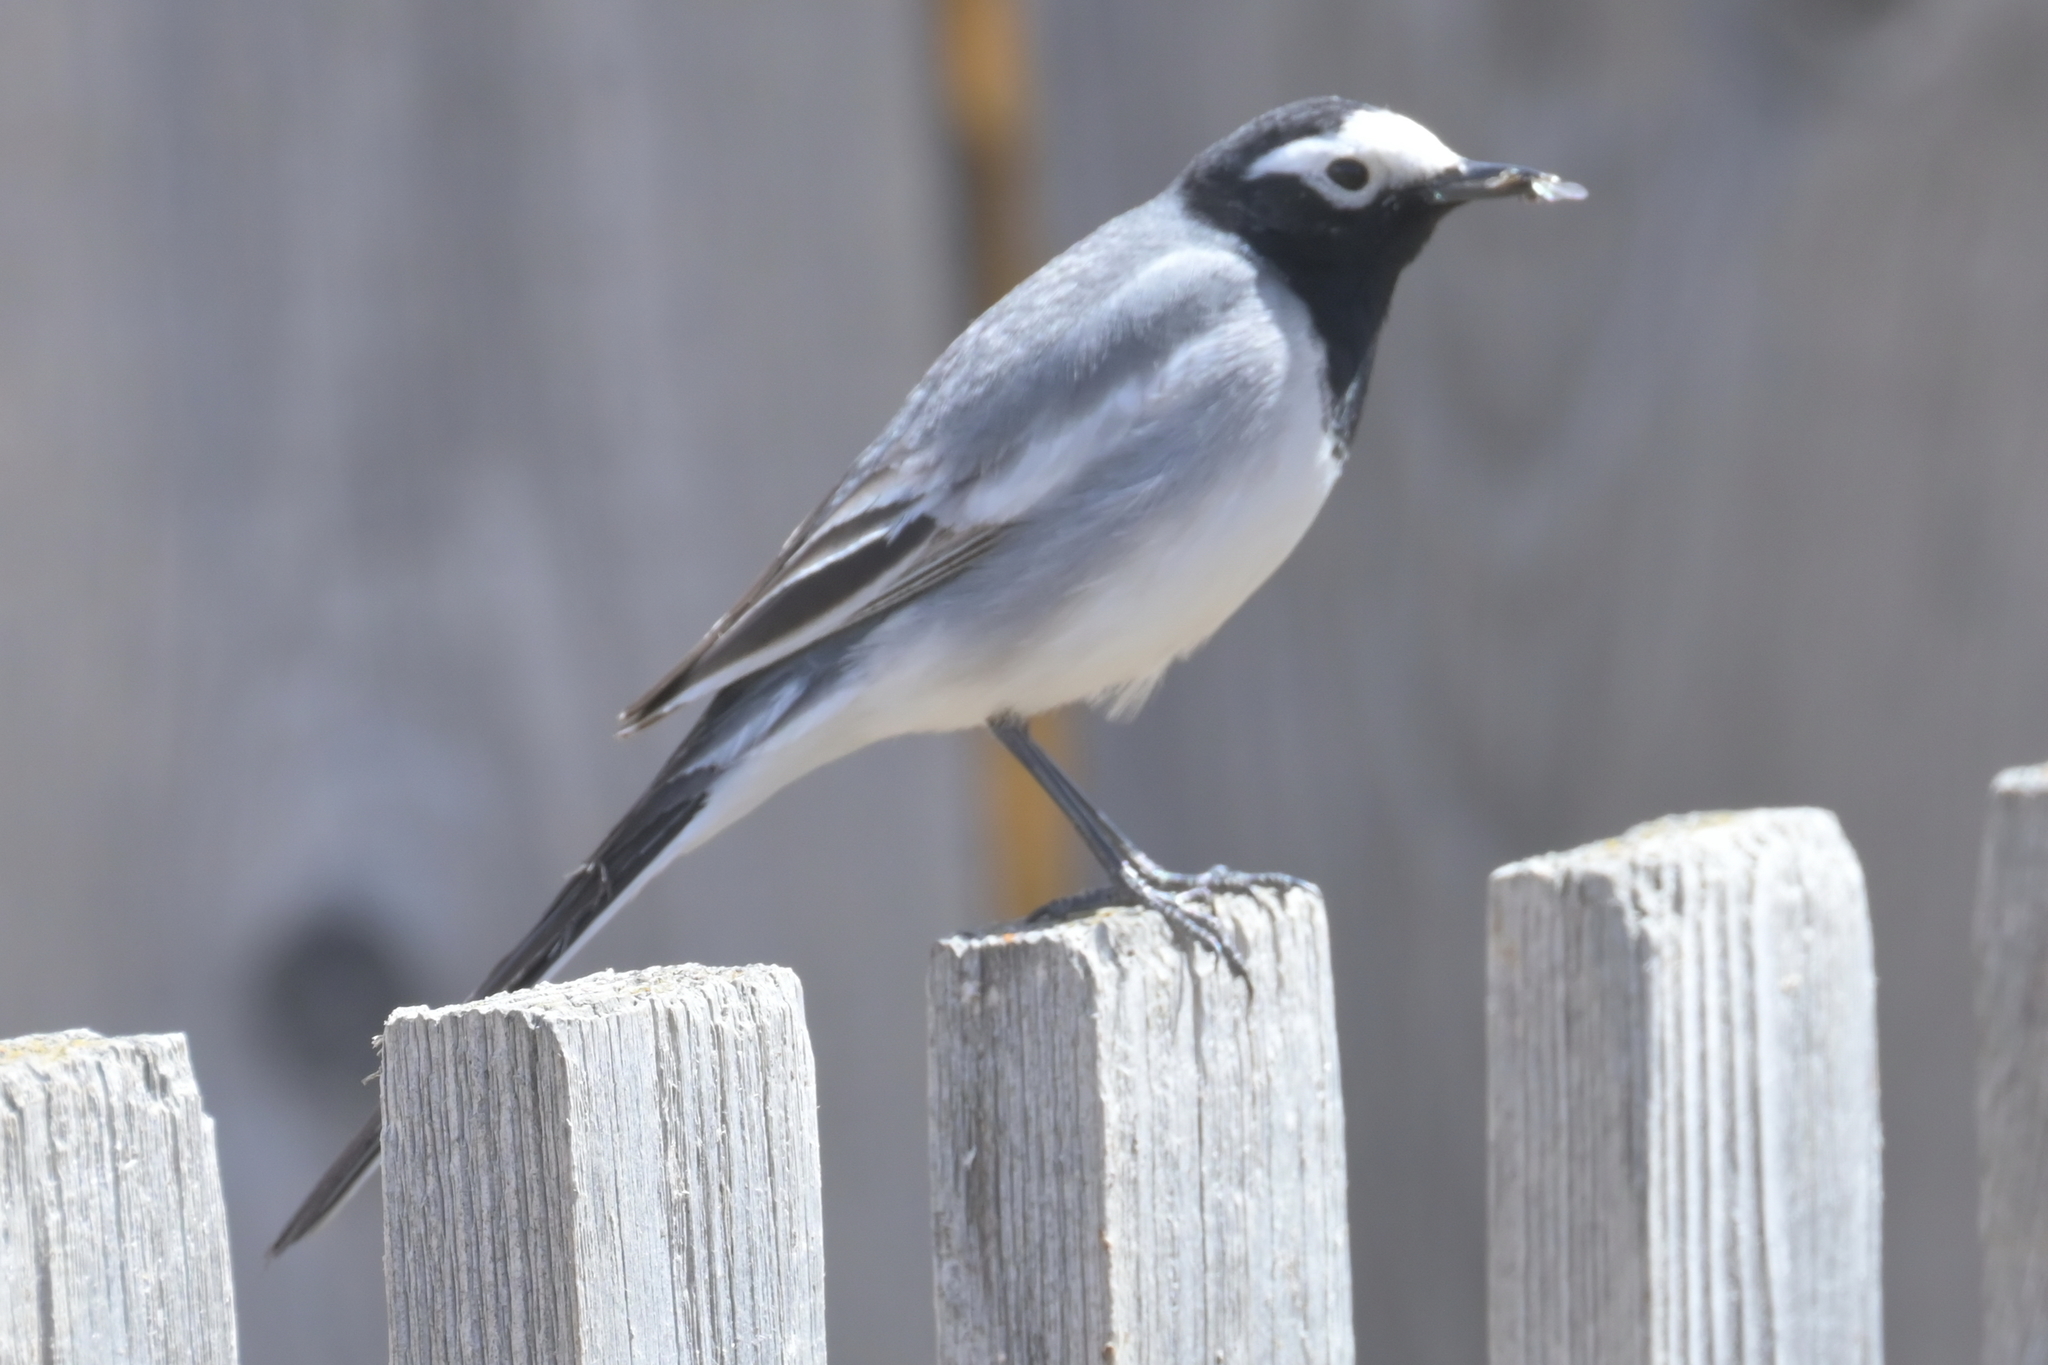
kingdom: Animalia
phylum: Chordata
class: Aves
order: Passeriformes
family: Motacillidae
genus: Motacilla
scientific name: Motacilla alba
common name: White wagtail
